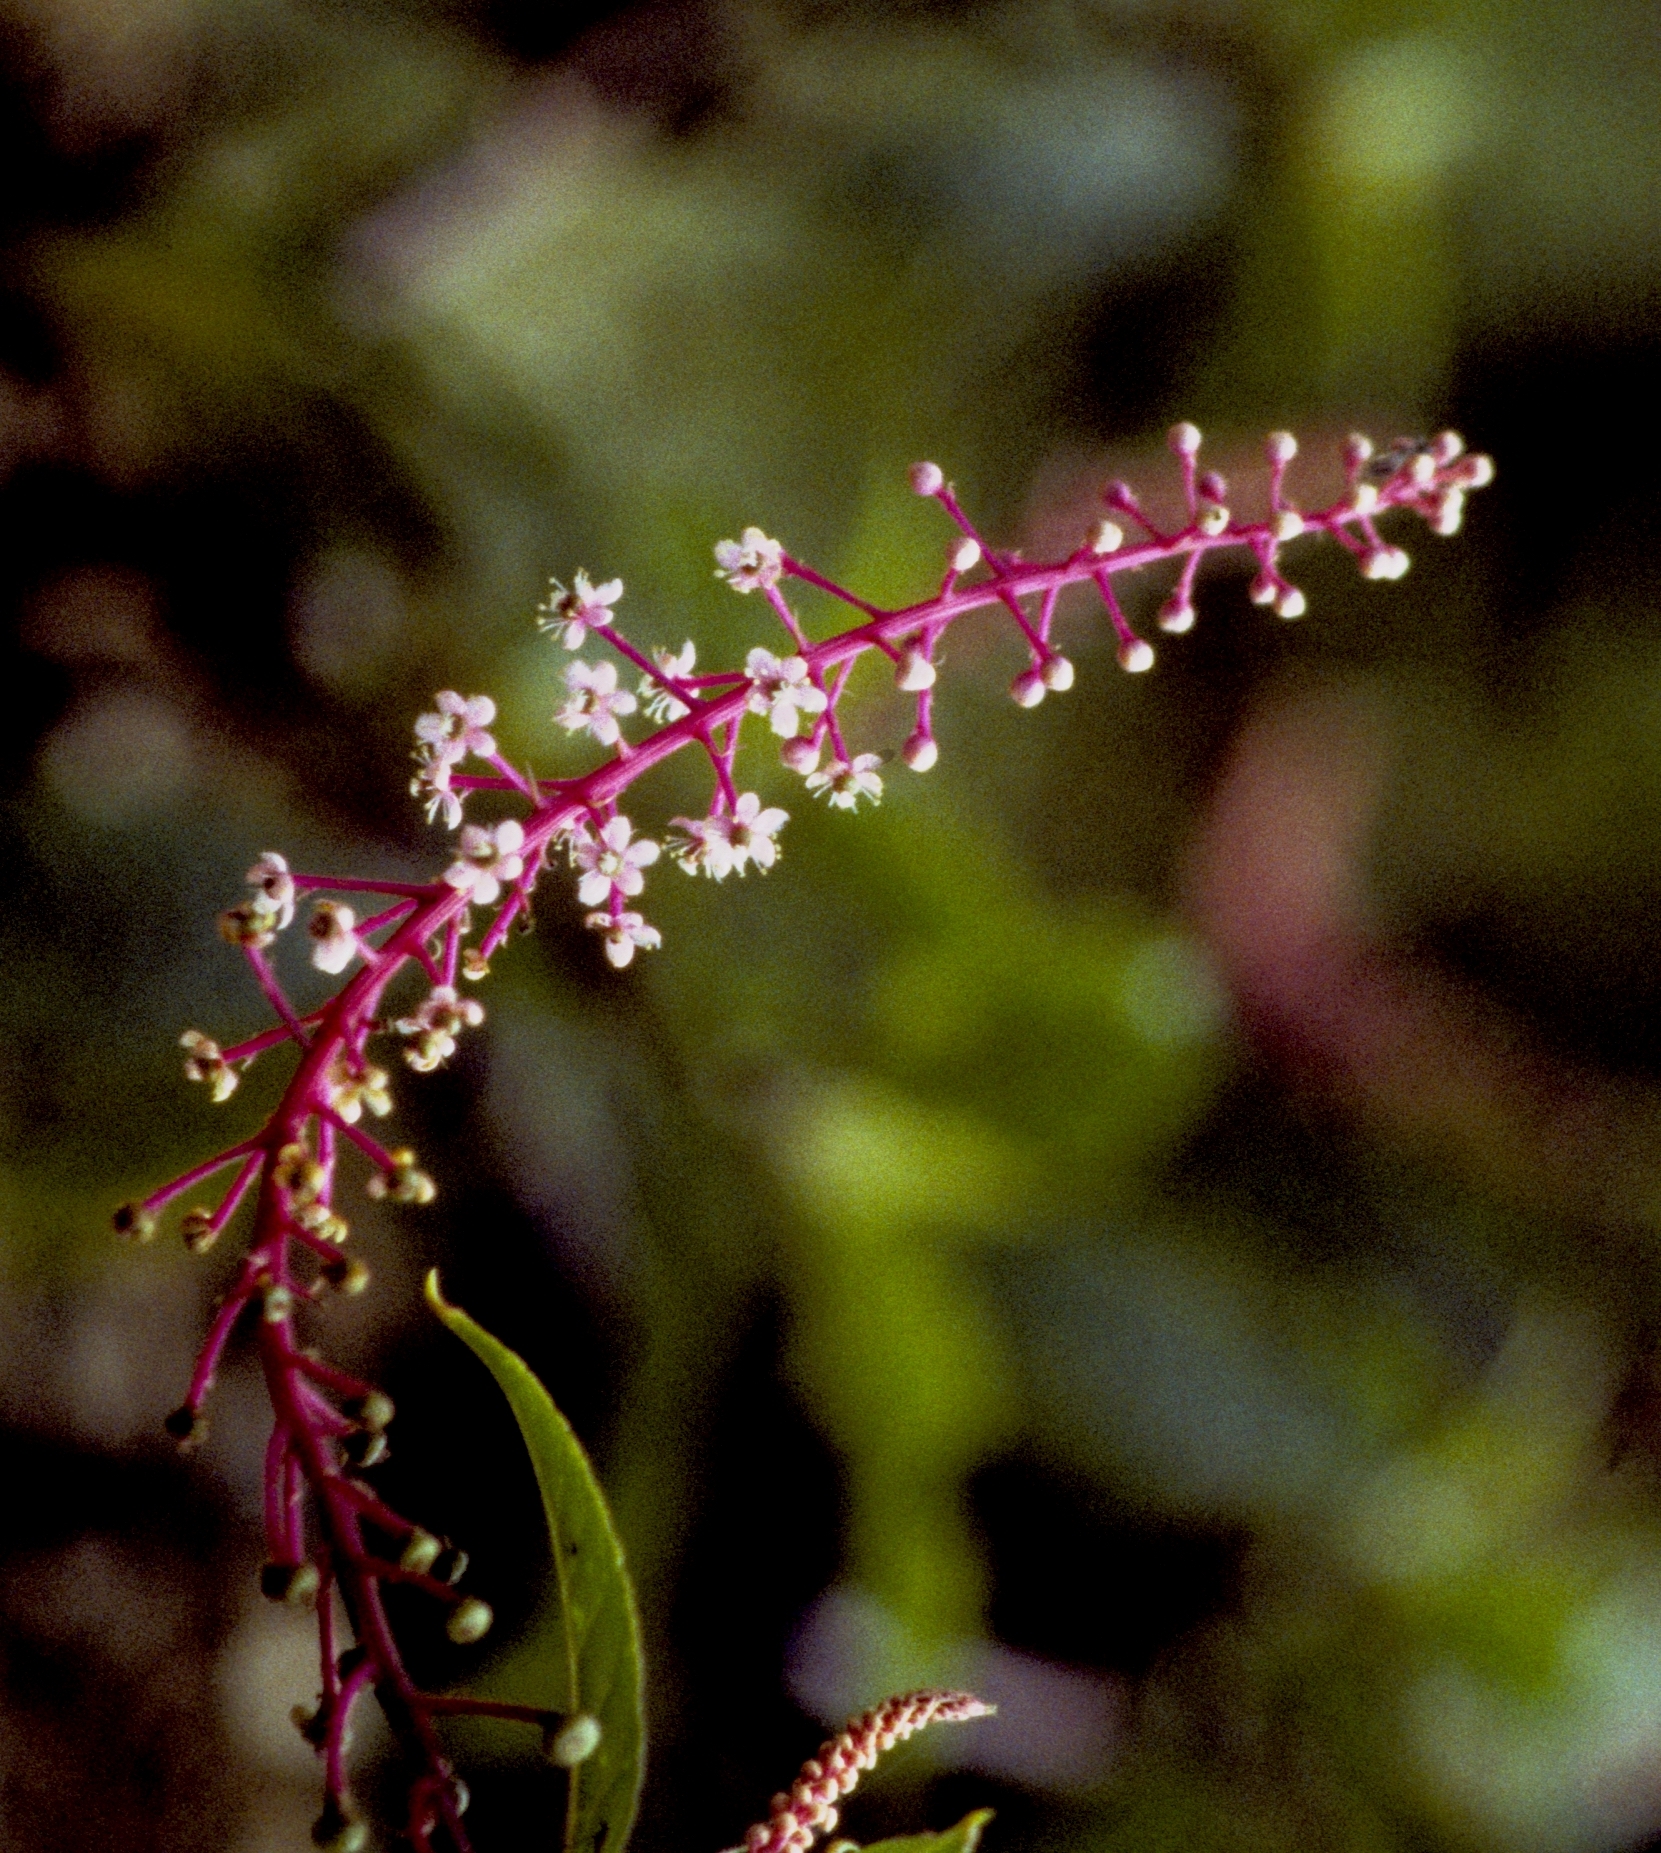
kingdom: Plantae
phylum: Tracheophyta
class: Magnoliopsida
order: Caryophyllales
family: Phytolaccaceae
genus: Phytolacca
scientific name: Phytolacca rivinoides
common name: Venezuelan pokeweed
